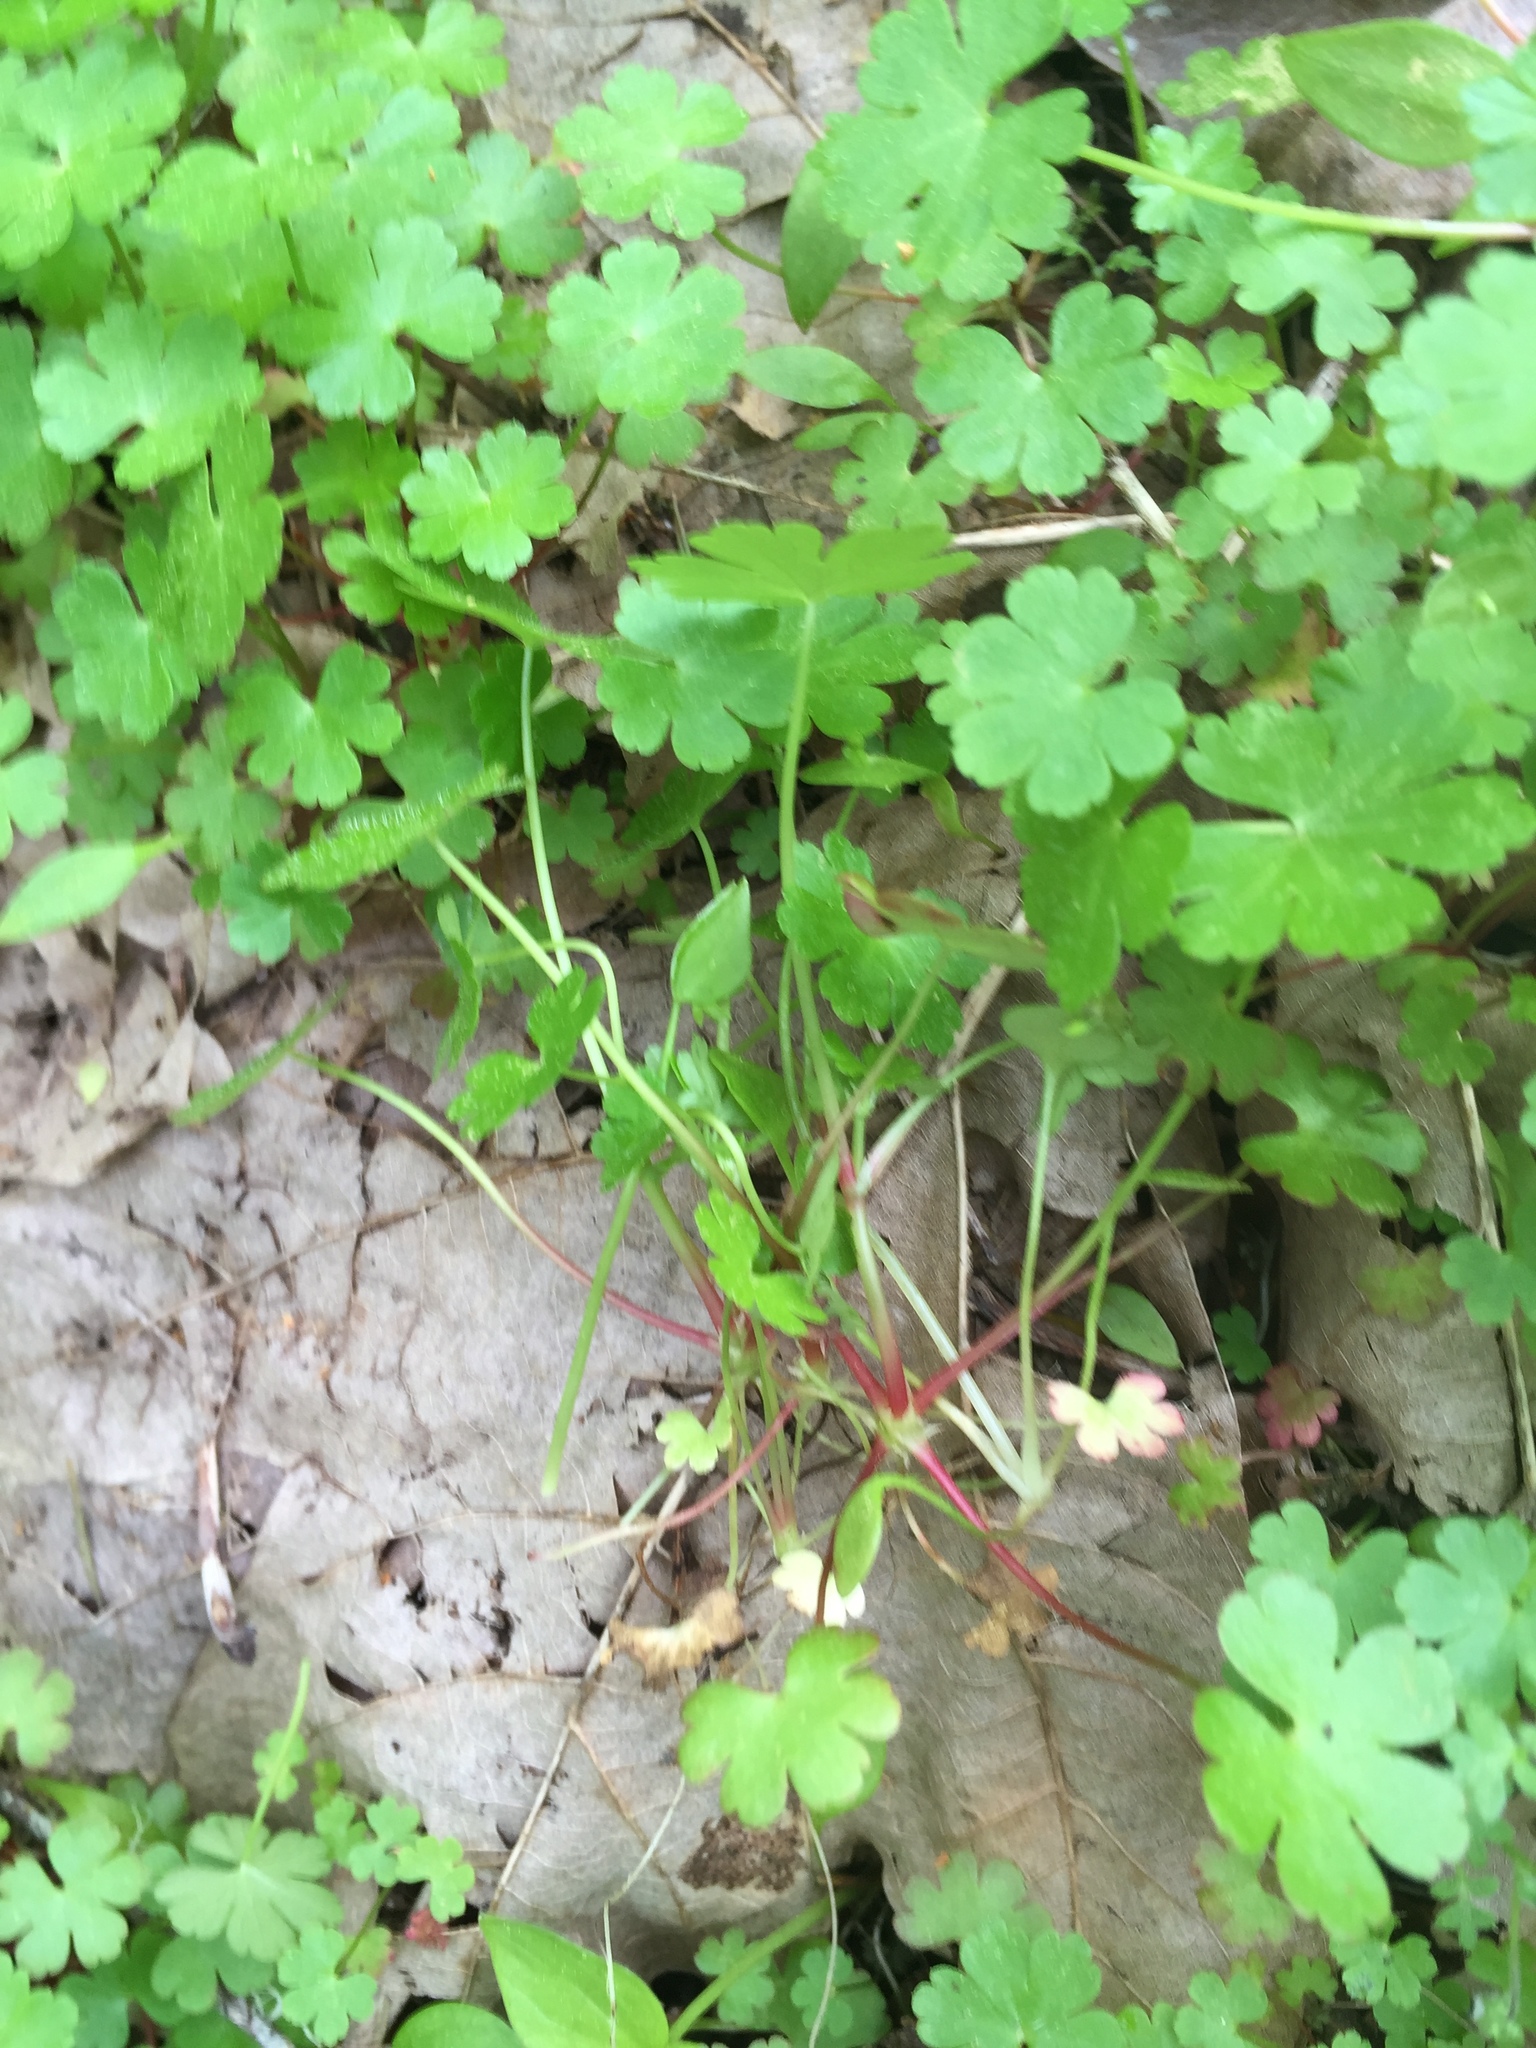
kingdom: Plantae
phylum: Tracheophyta
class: Magnoliopsida
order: Geraniales
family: Geraniaceae
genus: Geranium
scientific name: Geranium lucidum
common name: Shining crane's-bill
